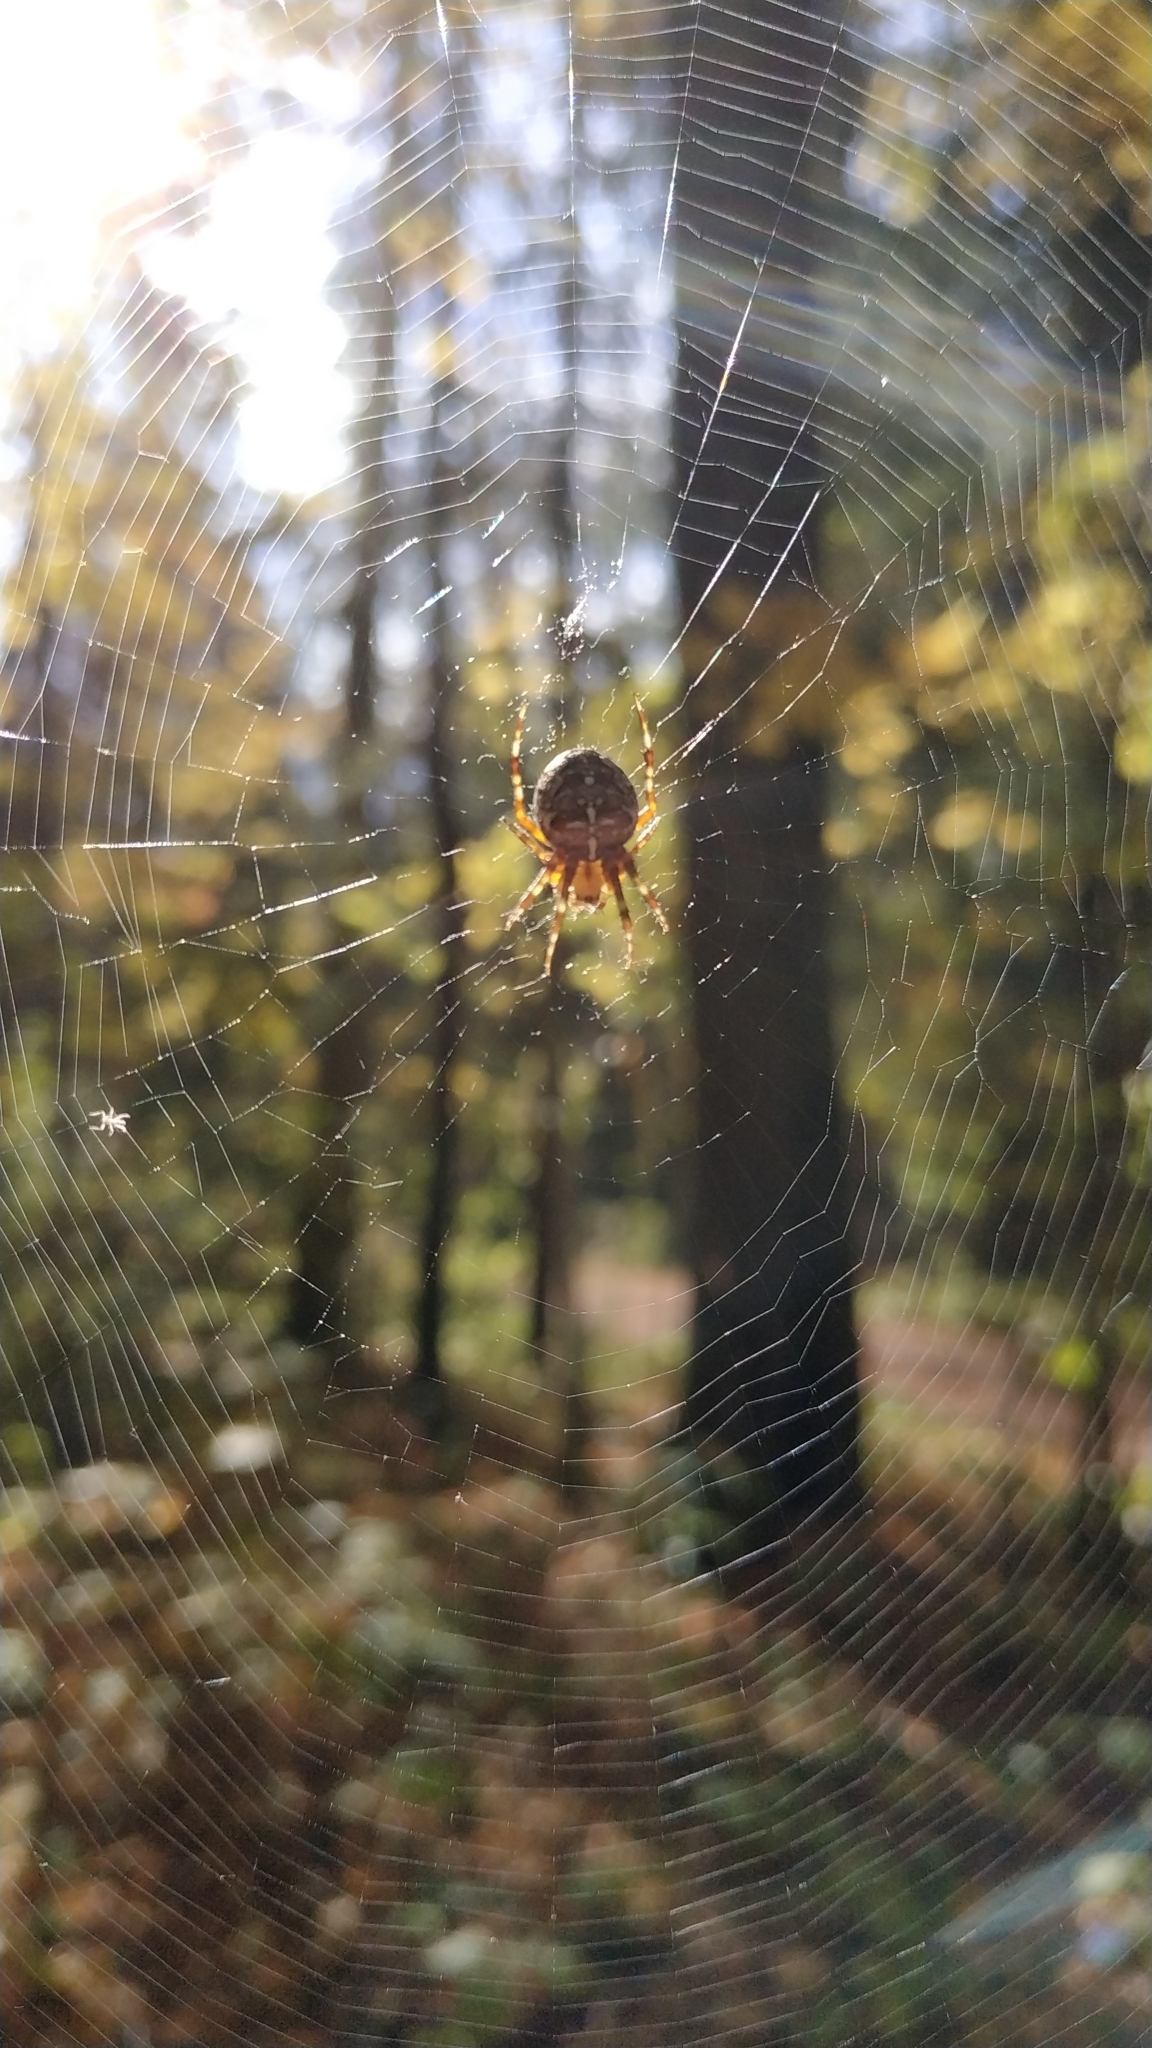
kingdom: Animalia
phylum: Arthropoda
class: Arachnida
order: Araneae
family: Araneidae
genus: Araneus
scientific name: Araneus diadematus
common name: Cross orbweaver
